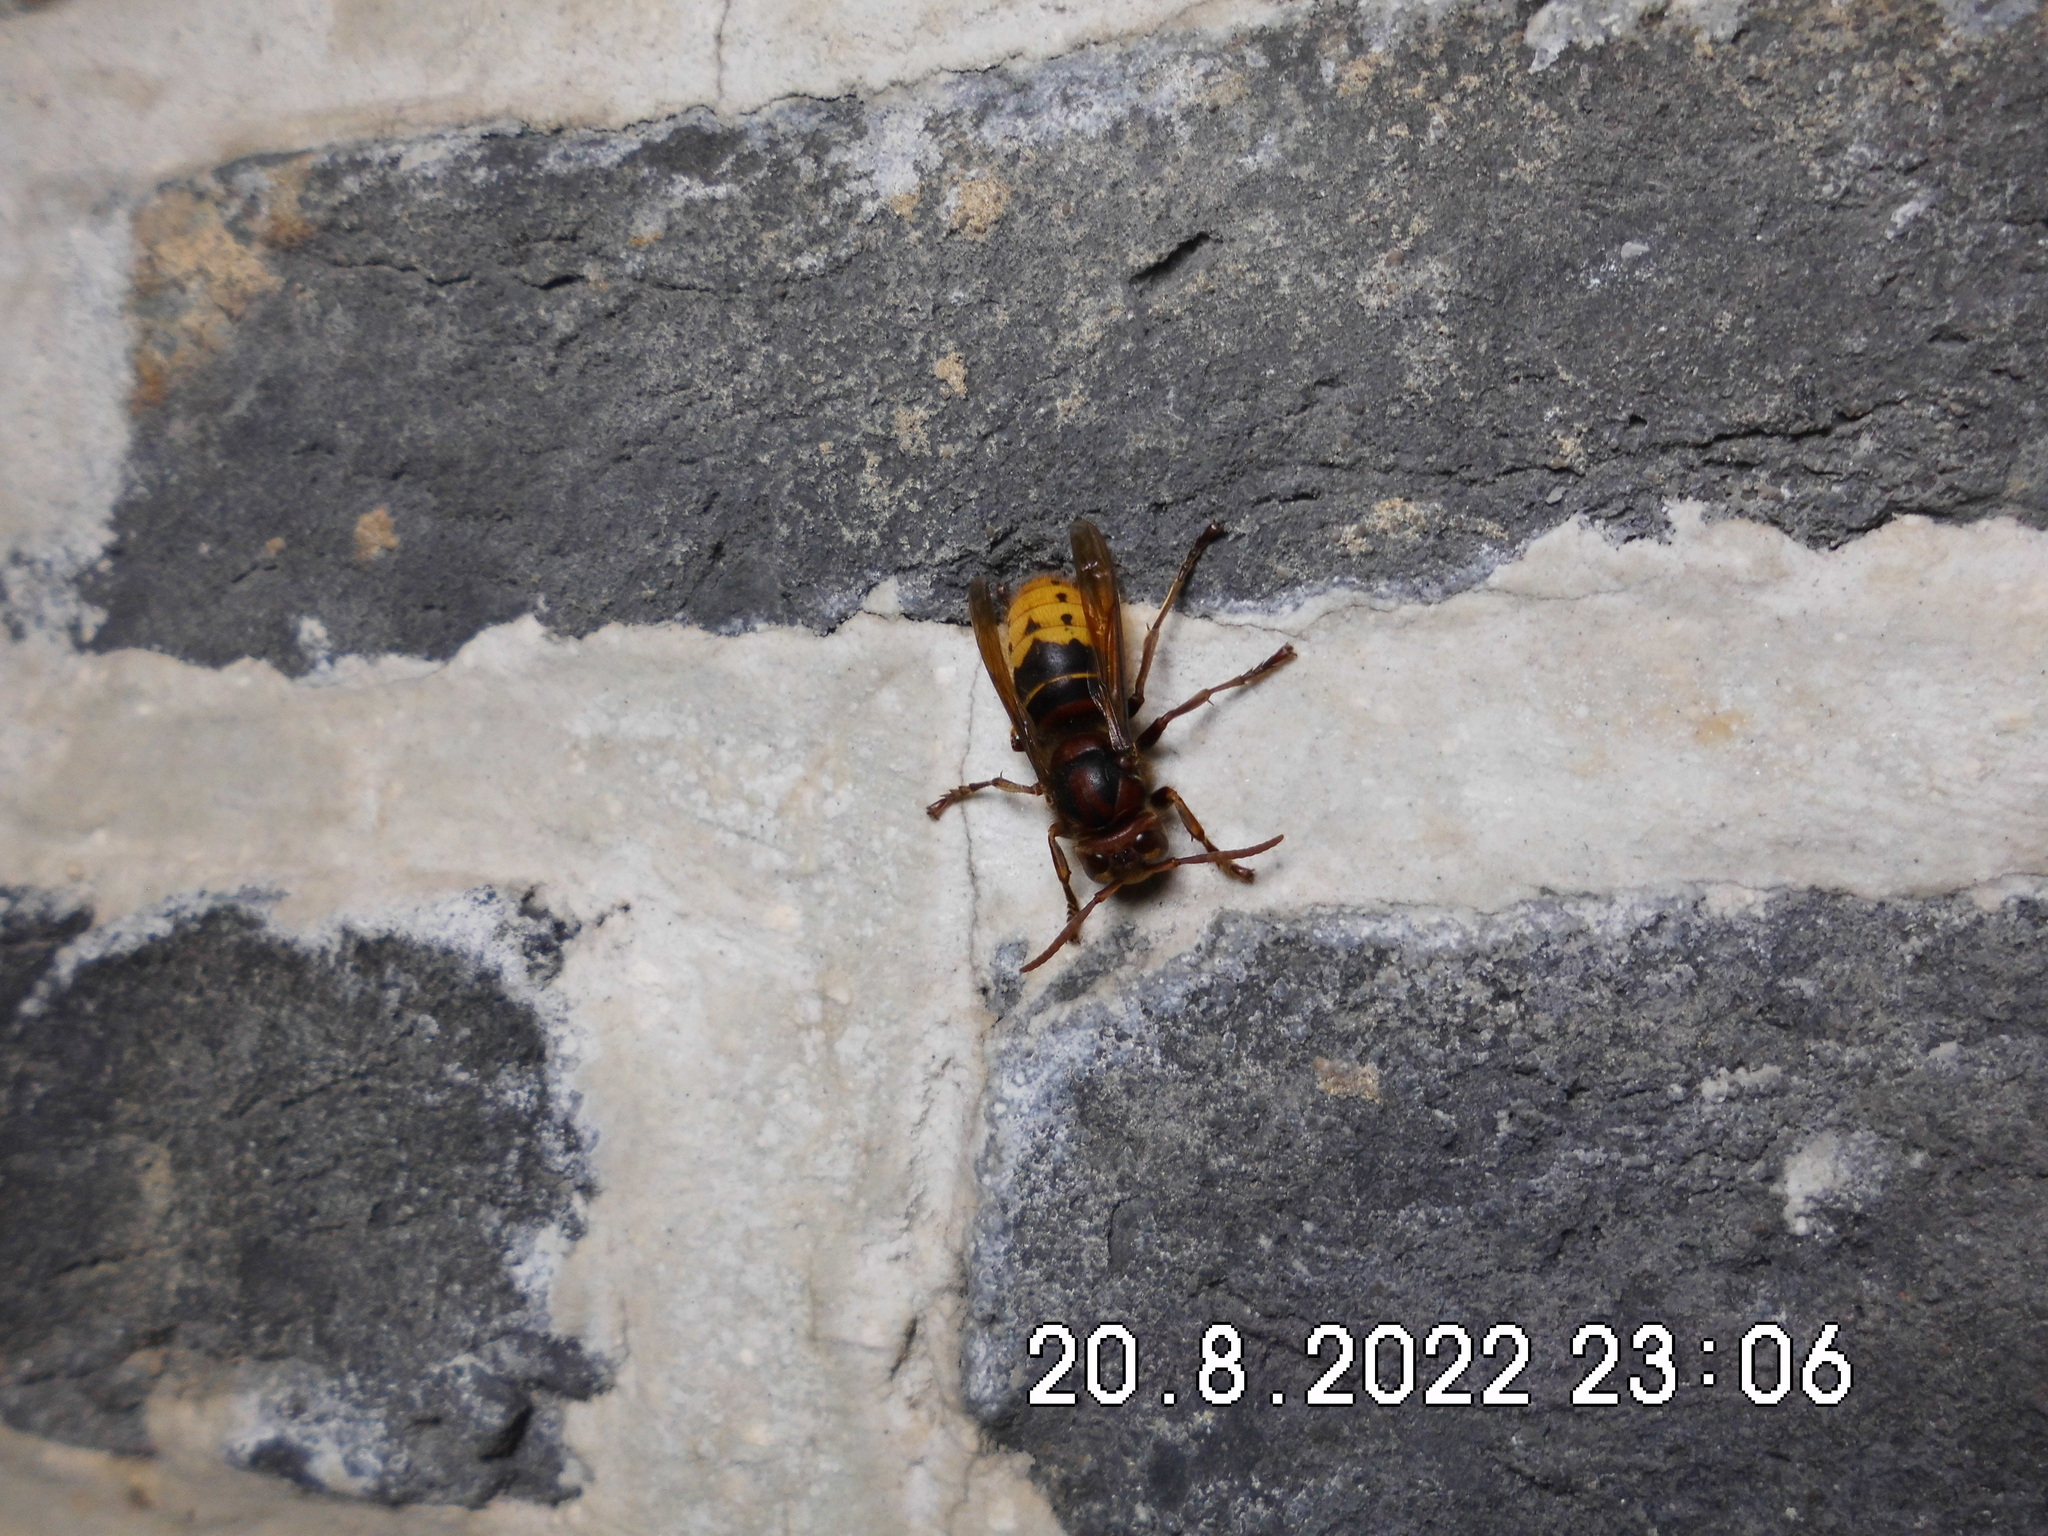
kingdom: Animalia
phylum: Arthropoda
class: Insecta
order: Hymenoptera
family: Vespidae
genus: Vespa
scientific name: Vespa crabro
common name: Hornet
